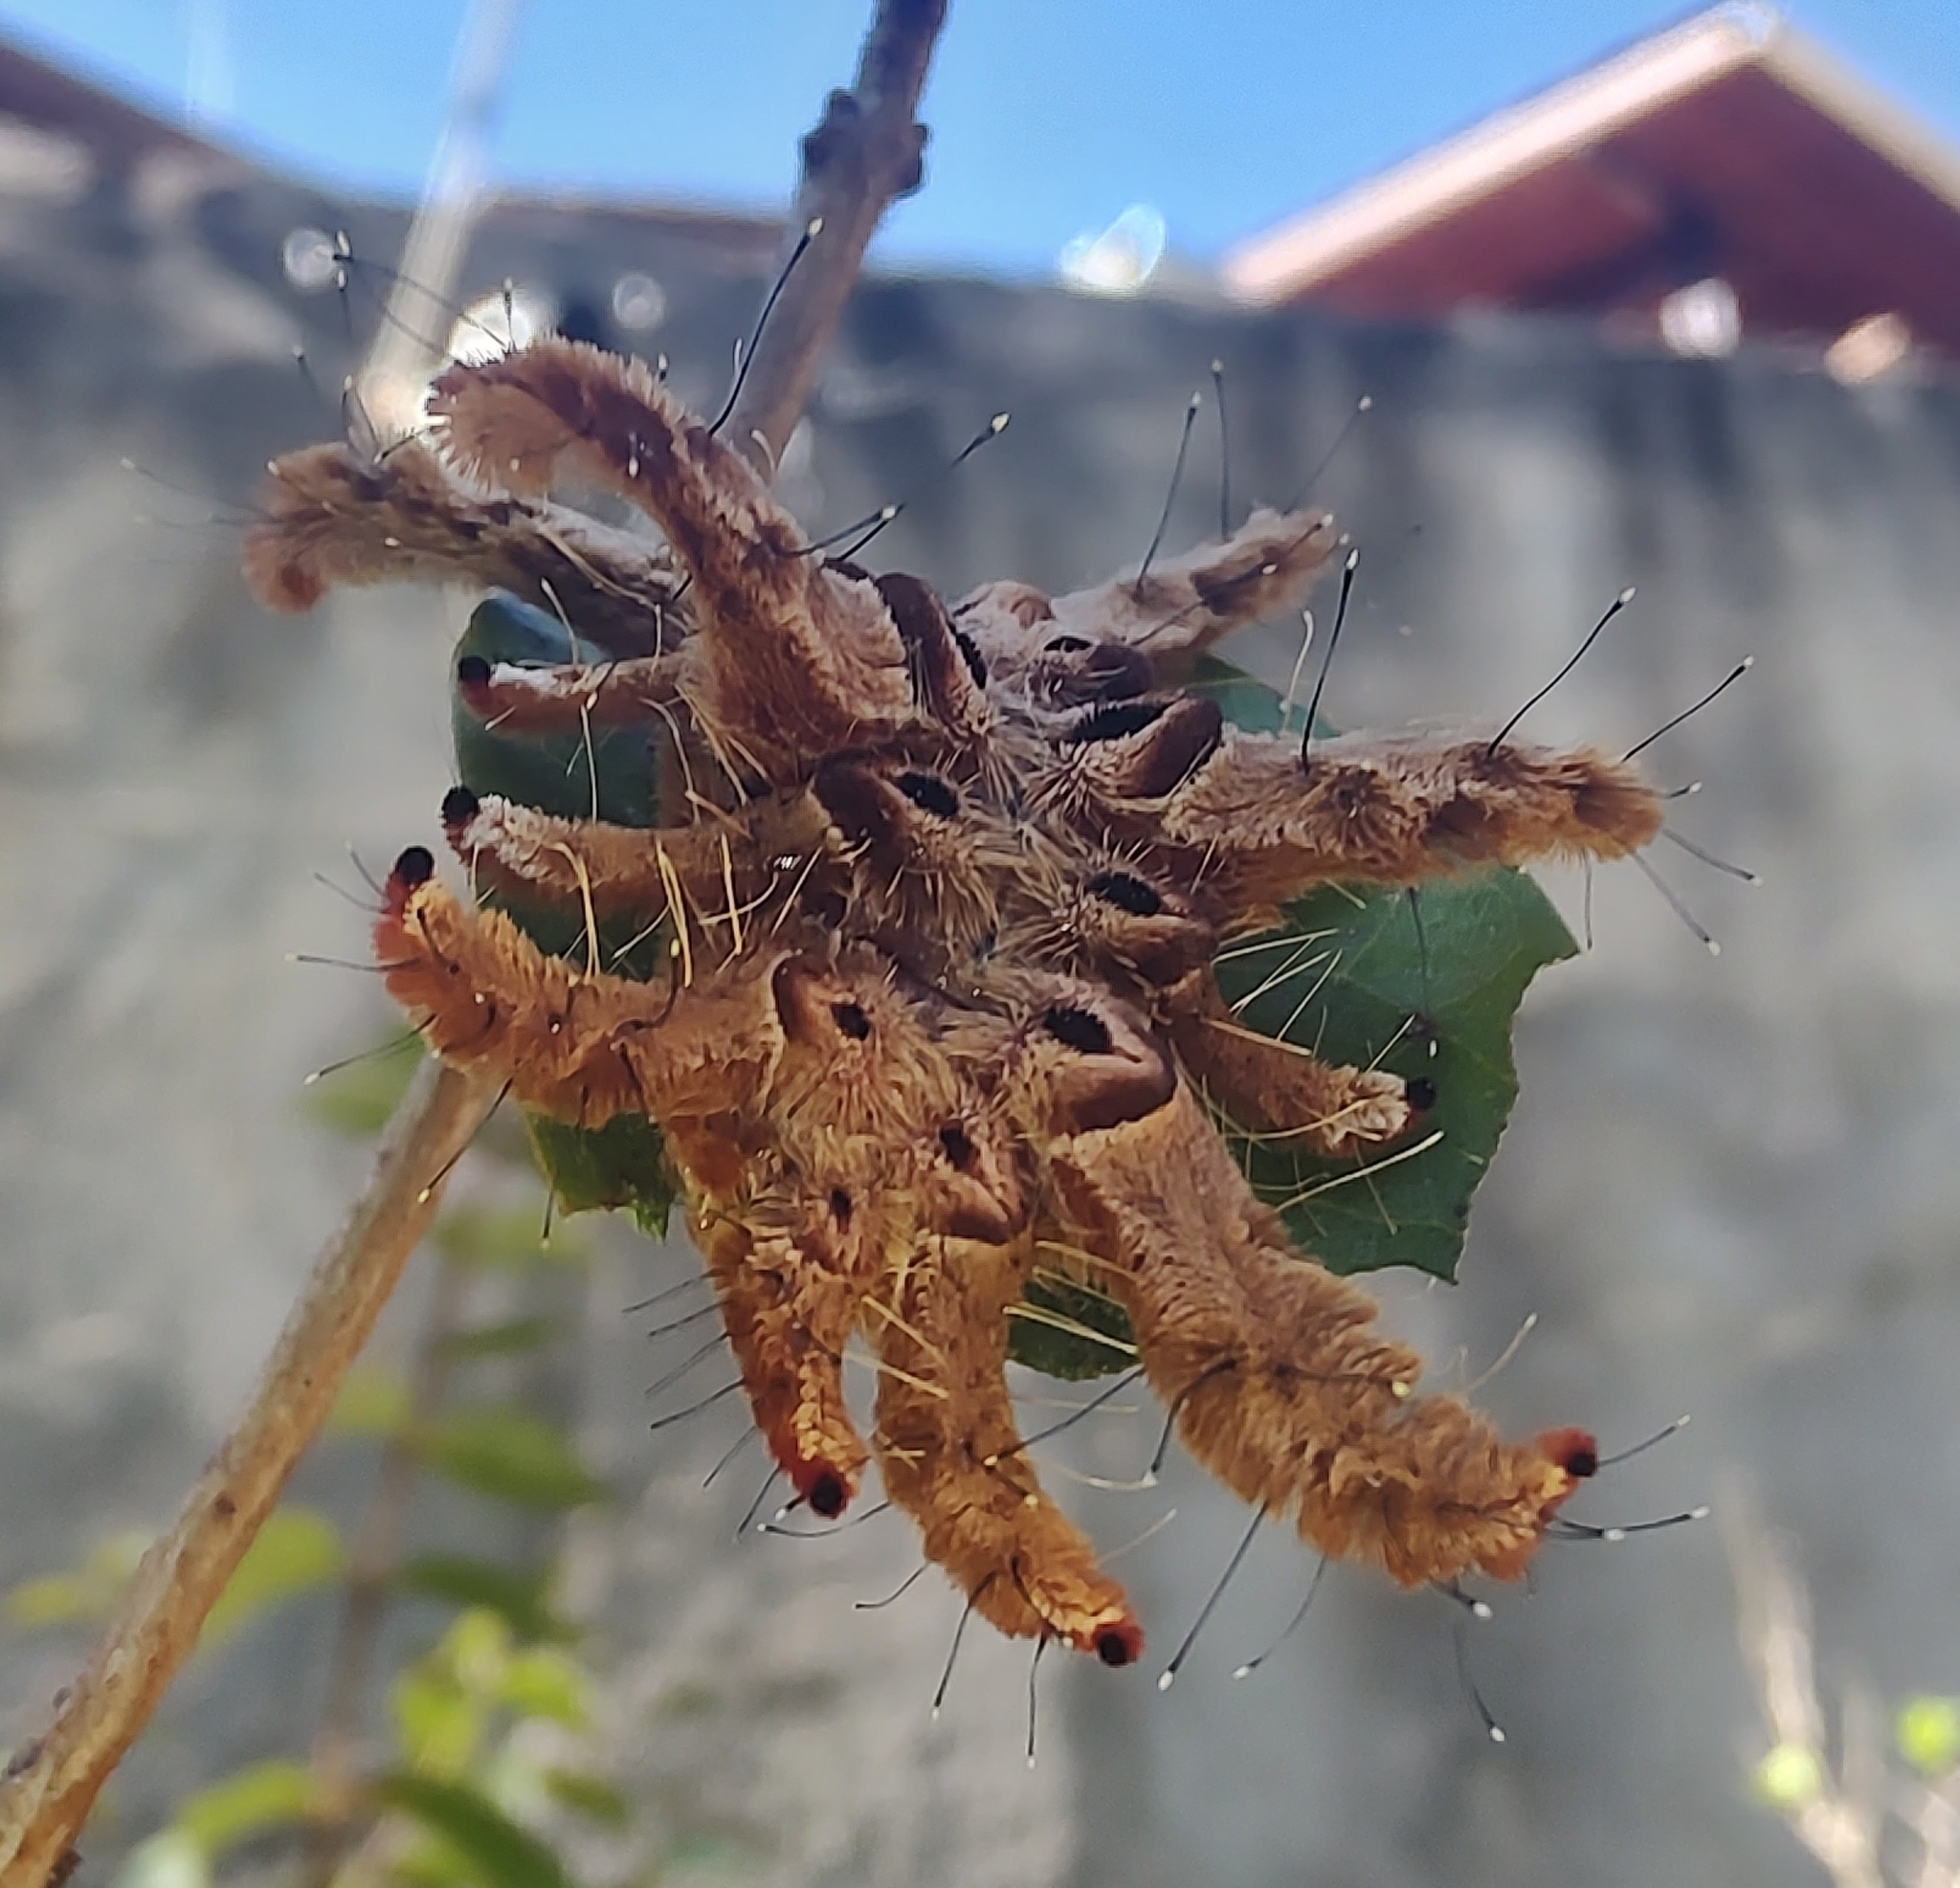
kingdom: Animalia
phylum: Arthropoda
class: Insecta
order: Lepidoptera
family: Limacodidae
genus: Phobetron
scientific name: Phobetron hipparchia
